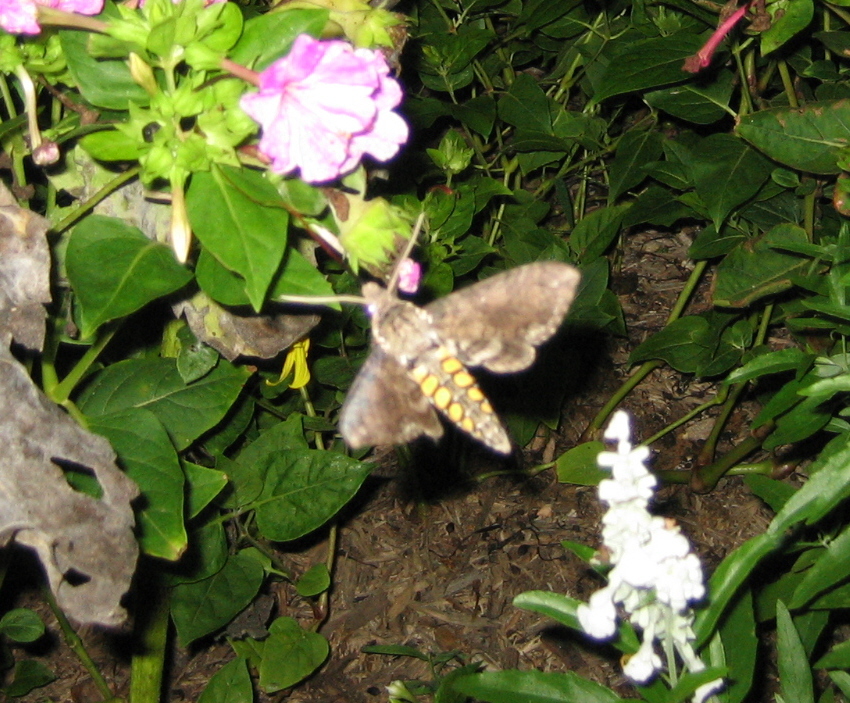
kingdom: Animalia
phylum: Arthropoda
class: Insecta
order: Lepidoptera
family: Sphingidae
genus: Manduca
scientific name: Manduca sexta
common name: Carolina sphinx
